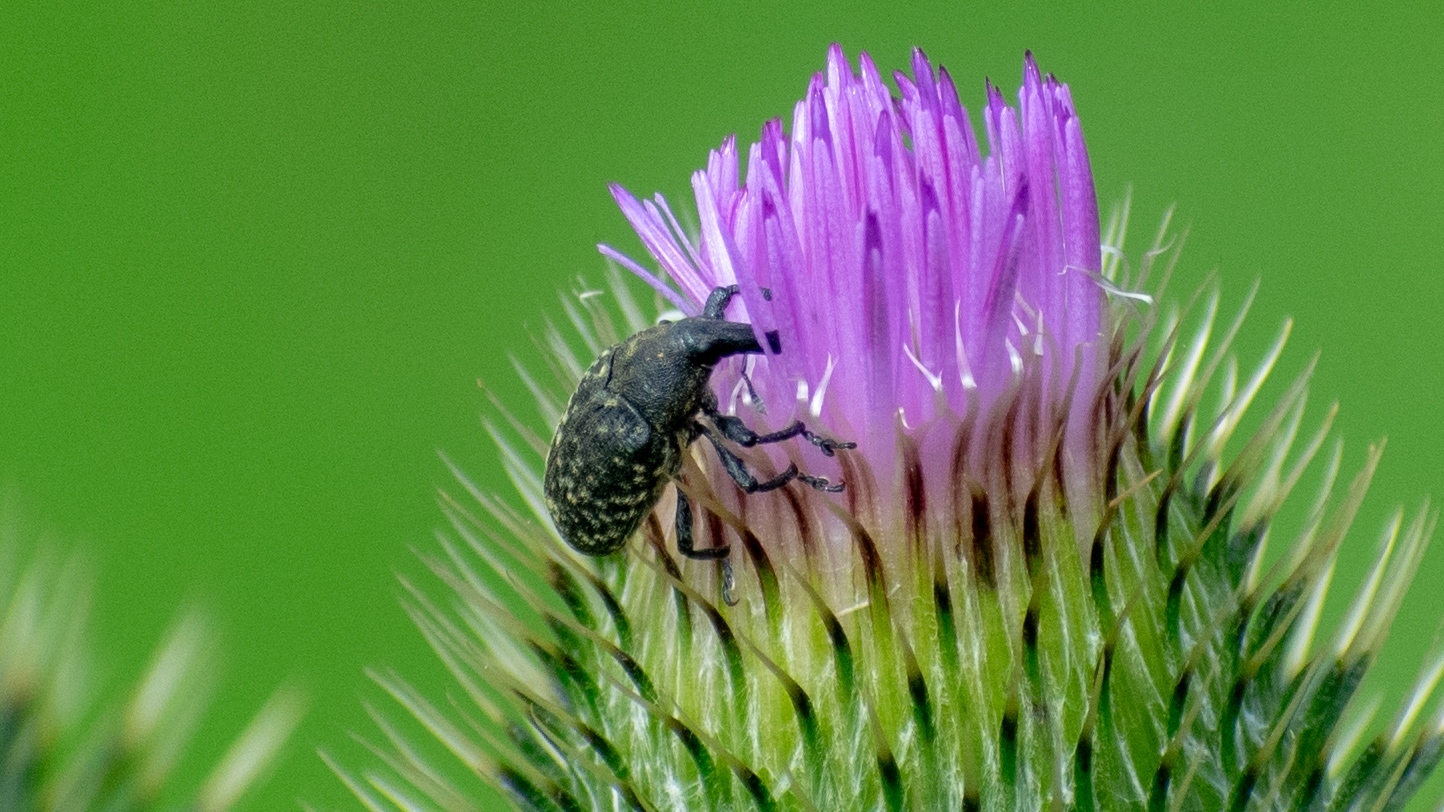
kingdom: Animalia
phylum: Arthropoda
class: Insecta
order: Coleoptera
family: Curculionidae
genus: Larinus
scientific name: Larinus turbinatus
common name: Weevil
